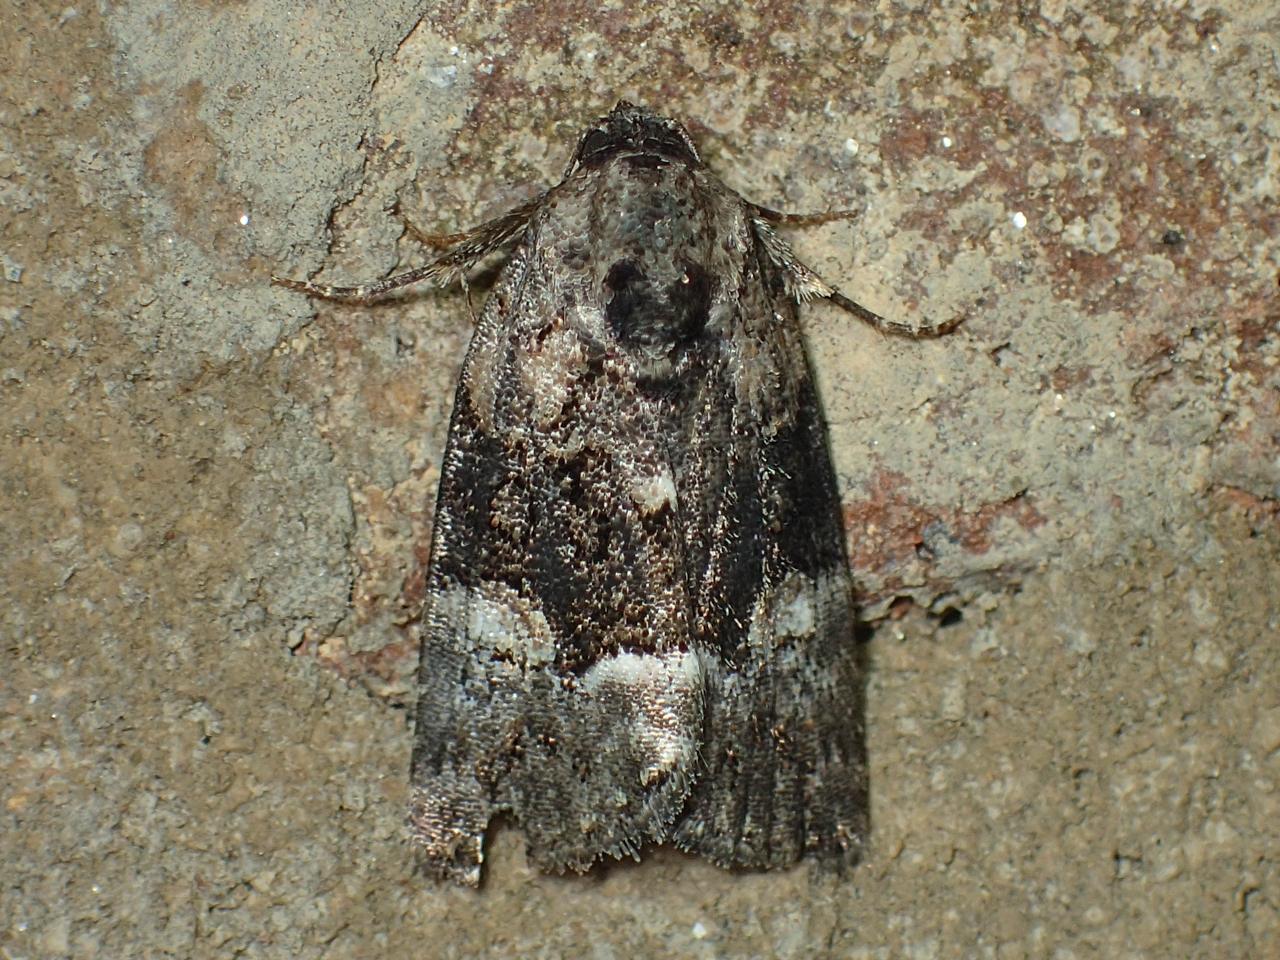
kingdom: Animalia
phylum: Arthropoda
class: Insecta
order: Lepidoptera
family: Noctuidae
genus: Elaphria
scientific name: Elaphria georgei
